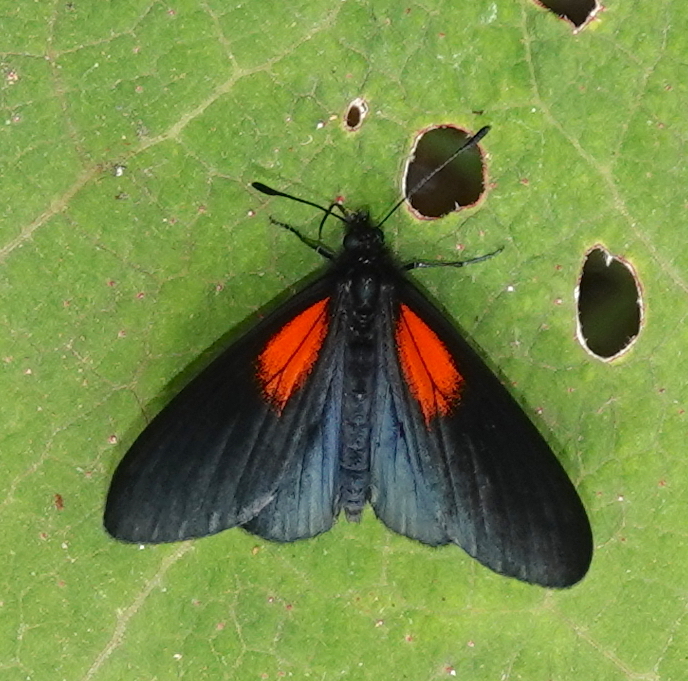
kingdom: Animalia
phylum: Arthropoda
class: Insecta
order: Lepidoptera
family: Nymphalidae
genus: Acraea
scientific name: Acraea Altinote ozomene
